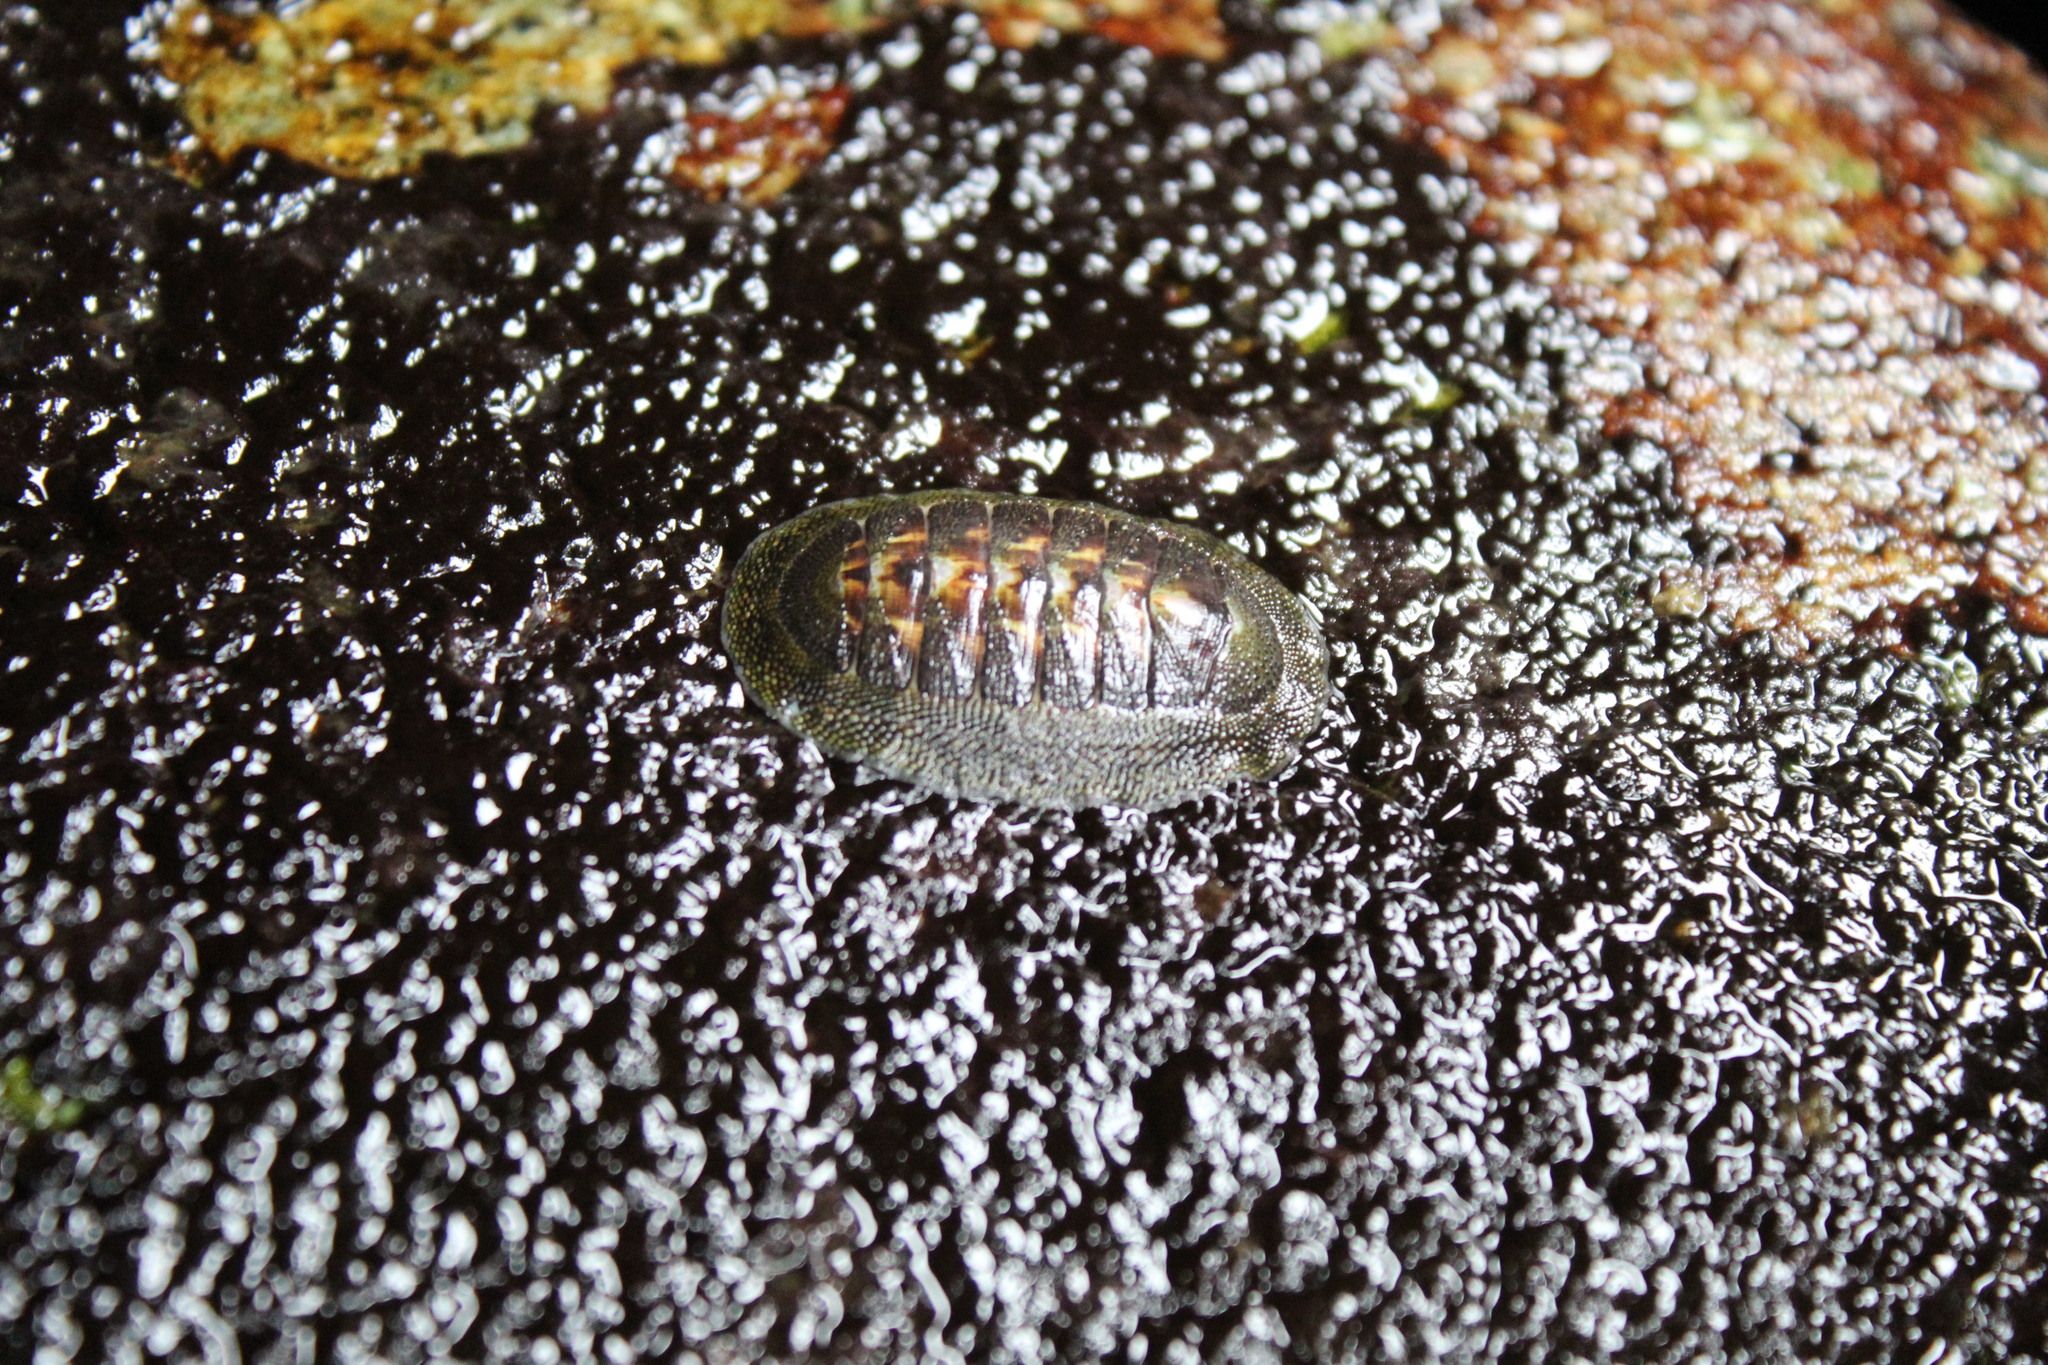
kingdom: Animalia
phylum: Mollusca
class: Polyplacophora
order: Chitonida
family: Chitonidae
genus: Chiton
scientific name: Chiton barnesii
